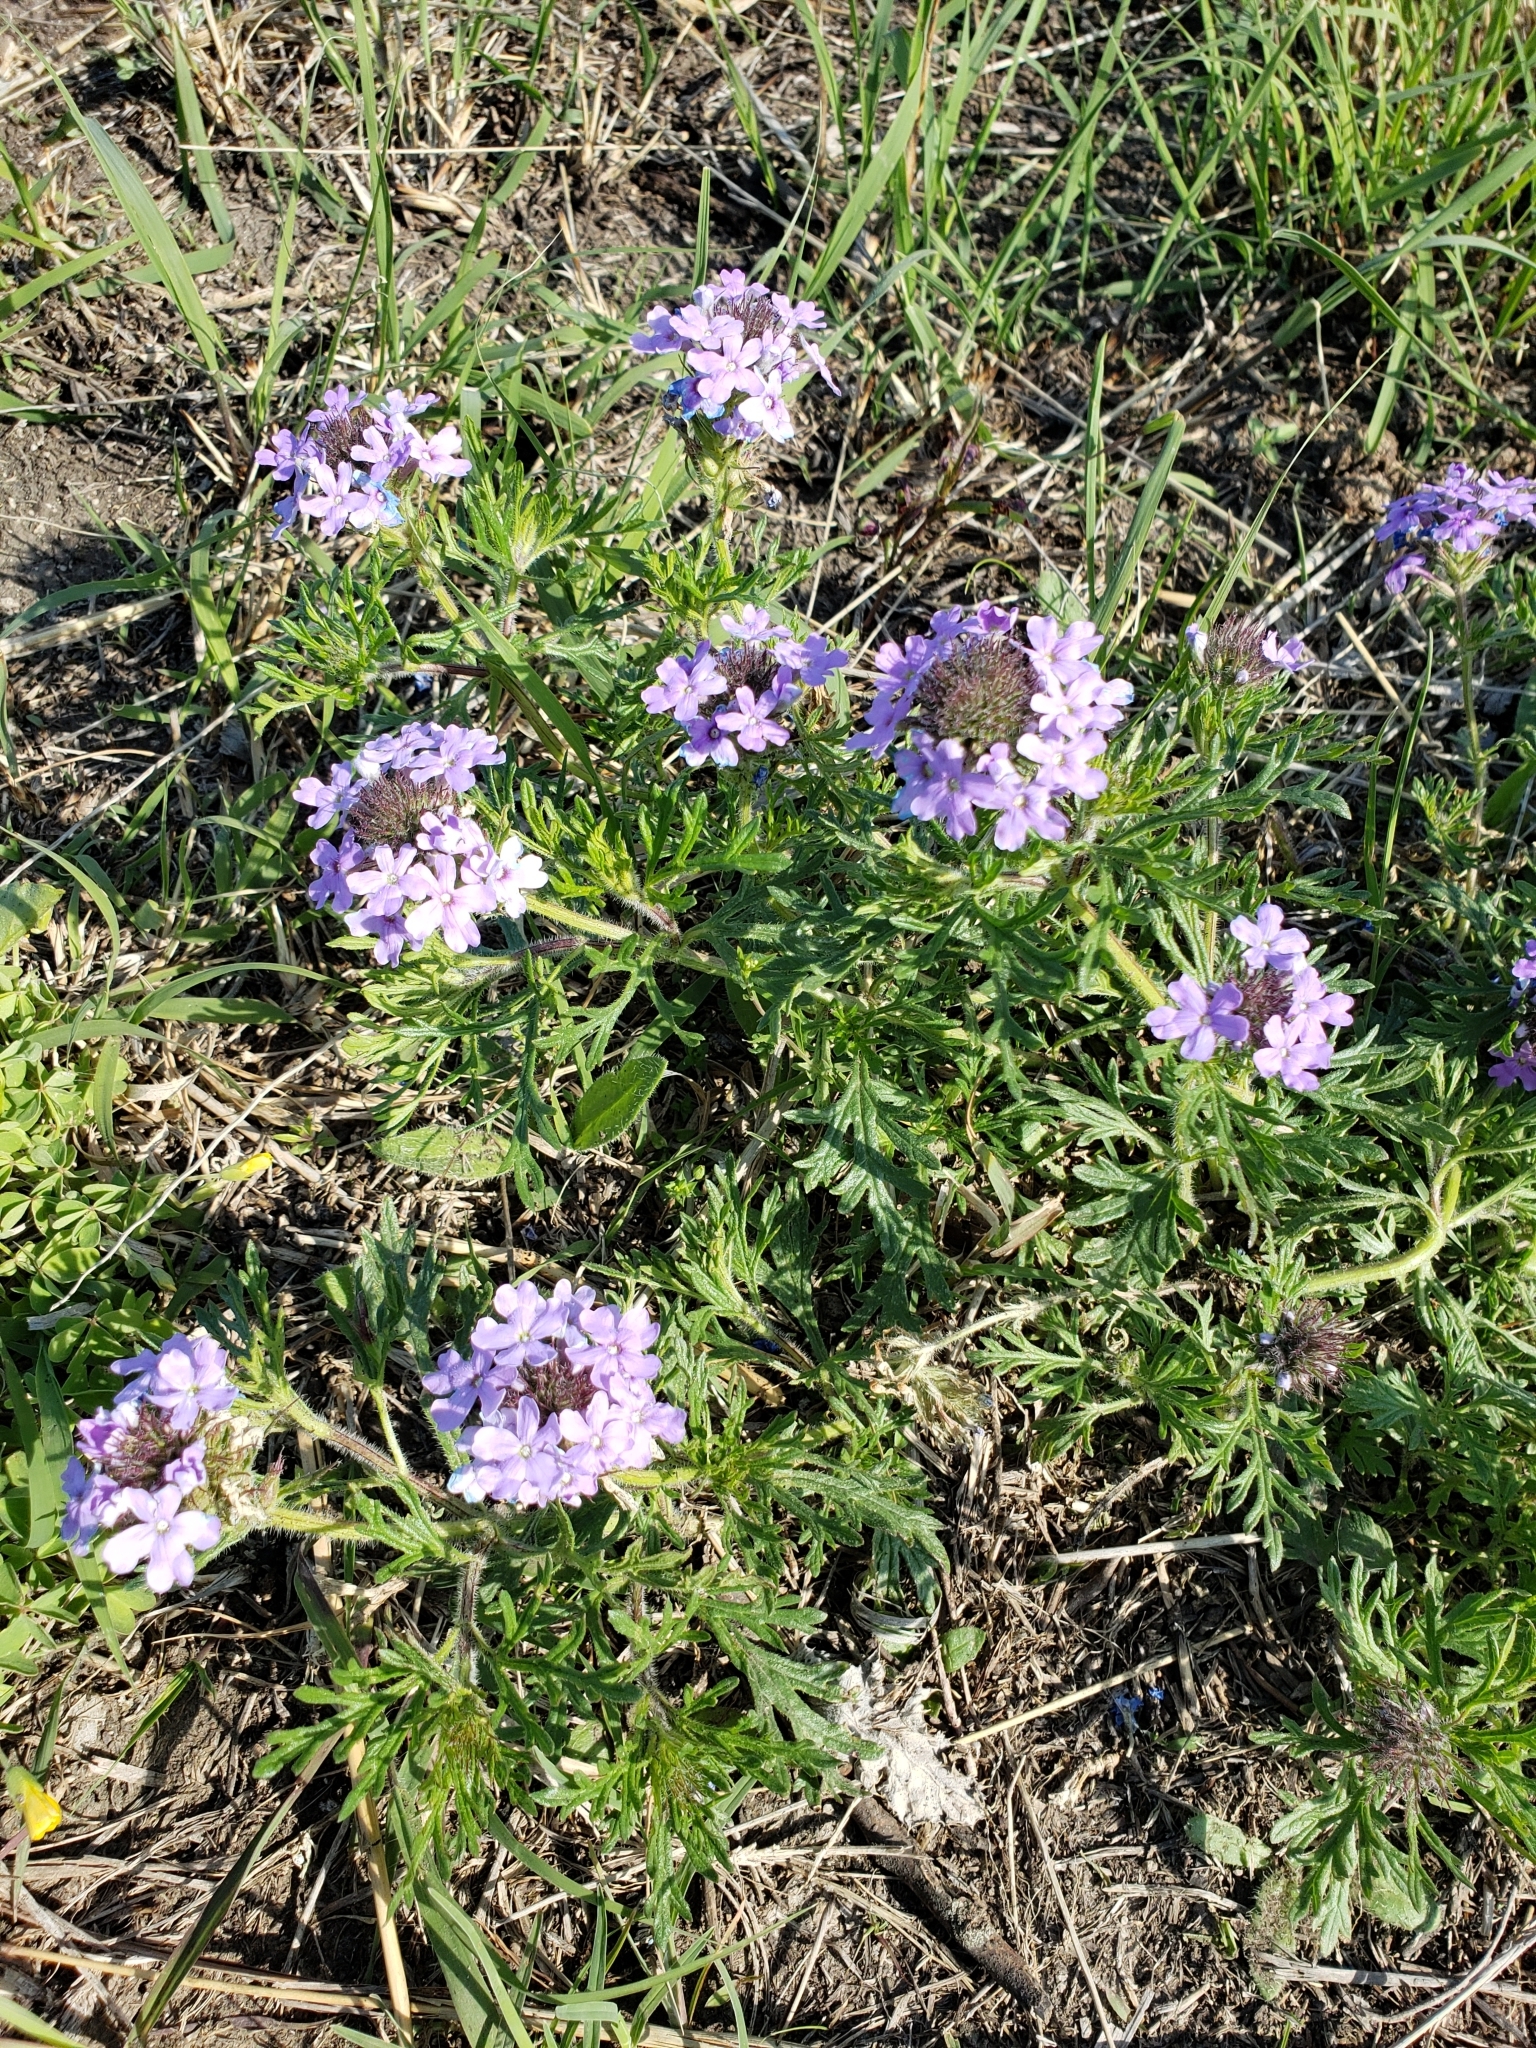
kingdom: Plantae
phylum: Tracheophyta
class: Magnoliopsida
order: Lamiales
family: Verbenaceae
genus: Verbena
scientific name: Verbena bipinnatifida
